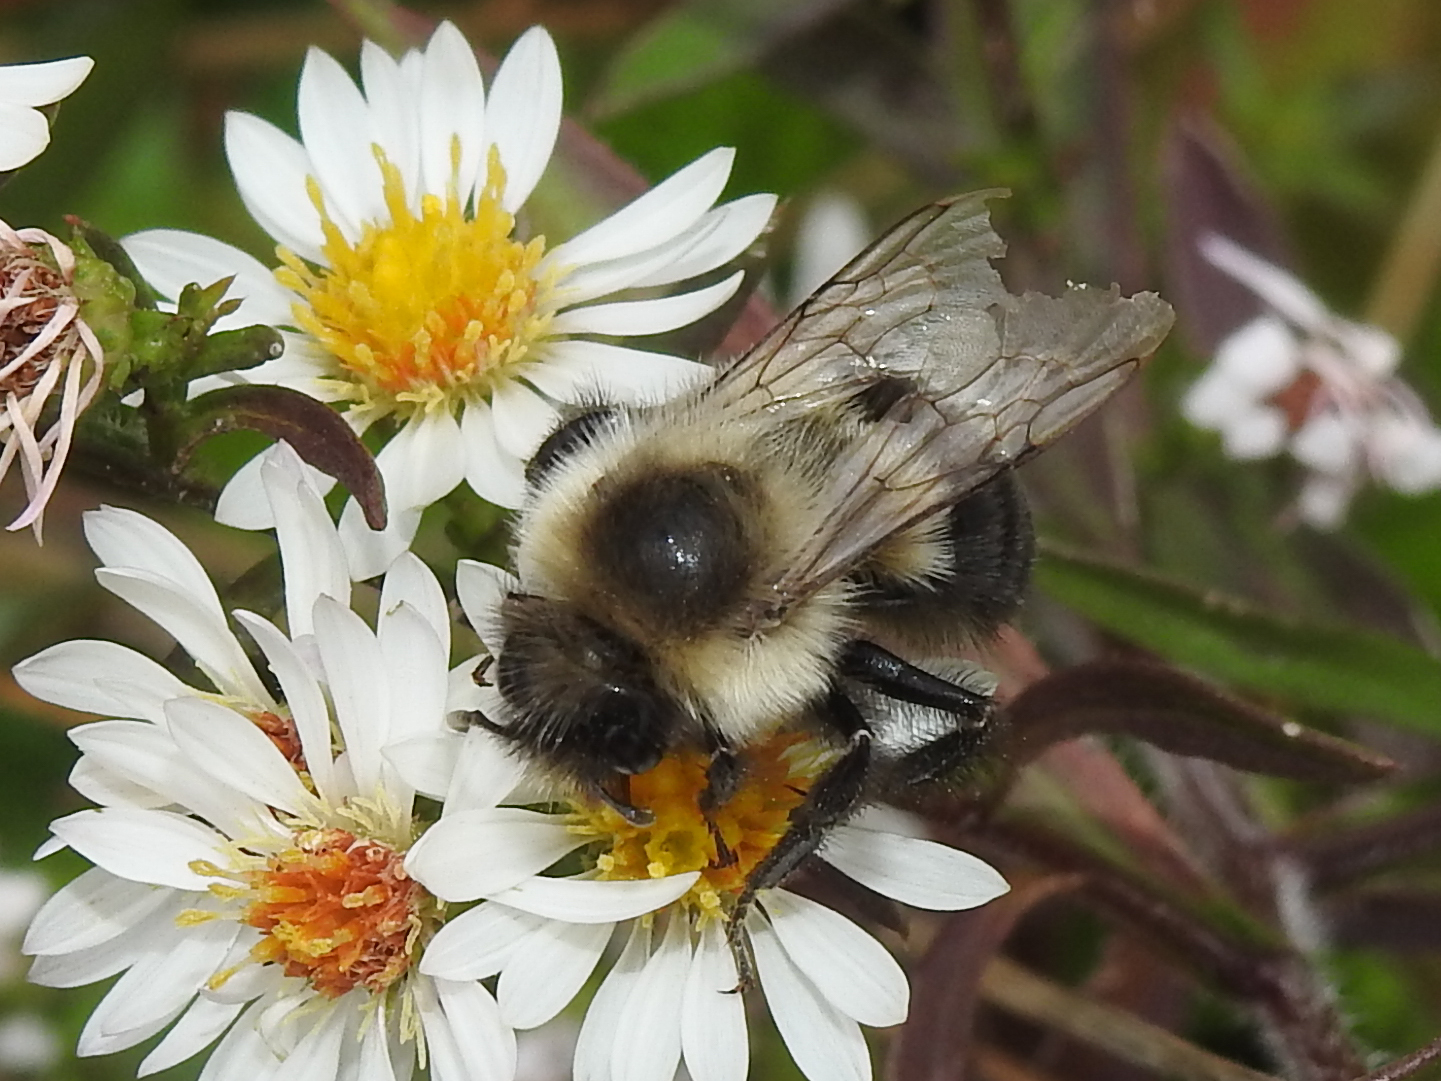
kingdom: Animalia
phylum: Arthropoda
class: Insecta
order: Hymenoptera
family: Apidae
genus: Bombus
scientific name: Bombus impatiens
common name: Common eastern bumble bee
